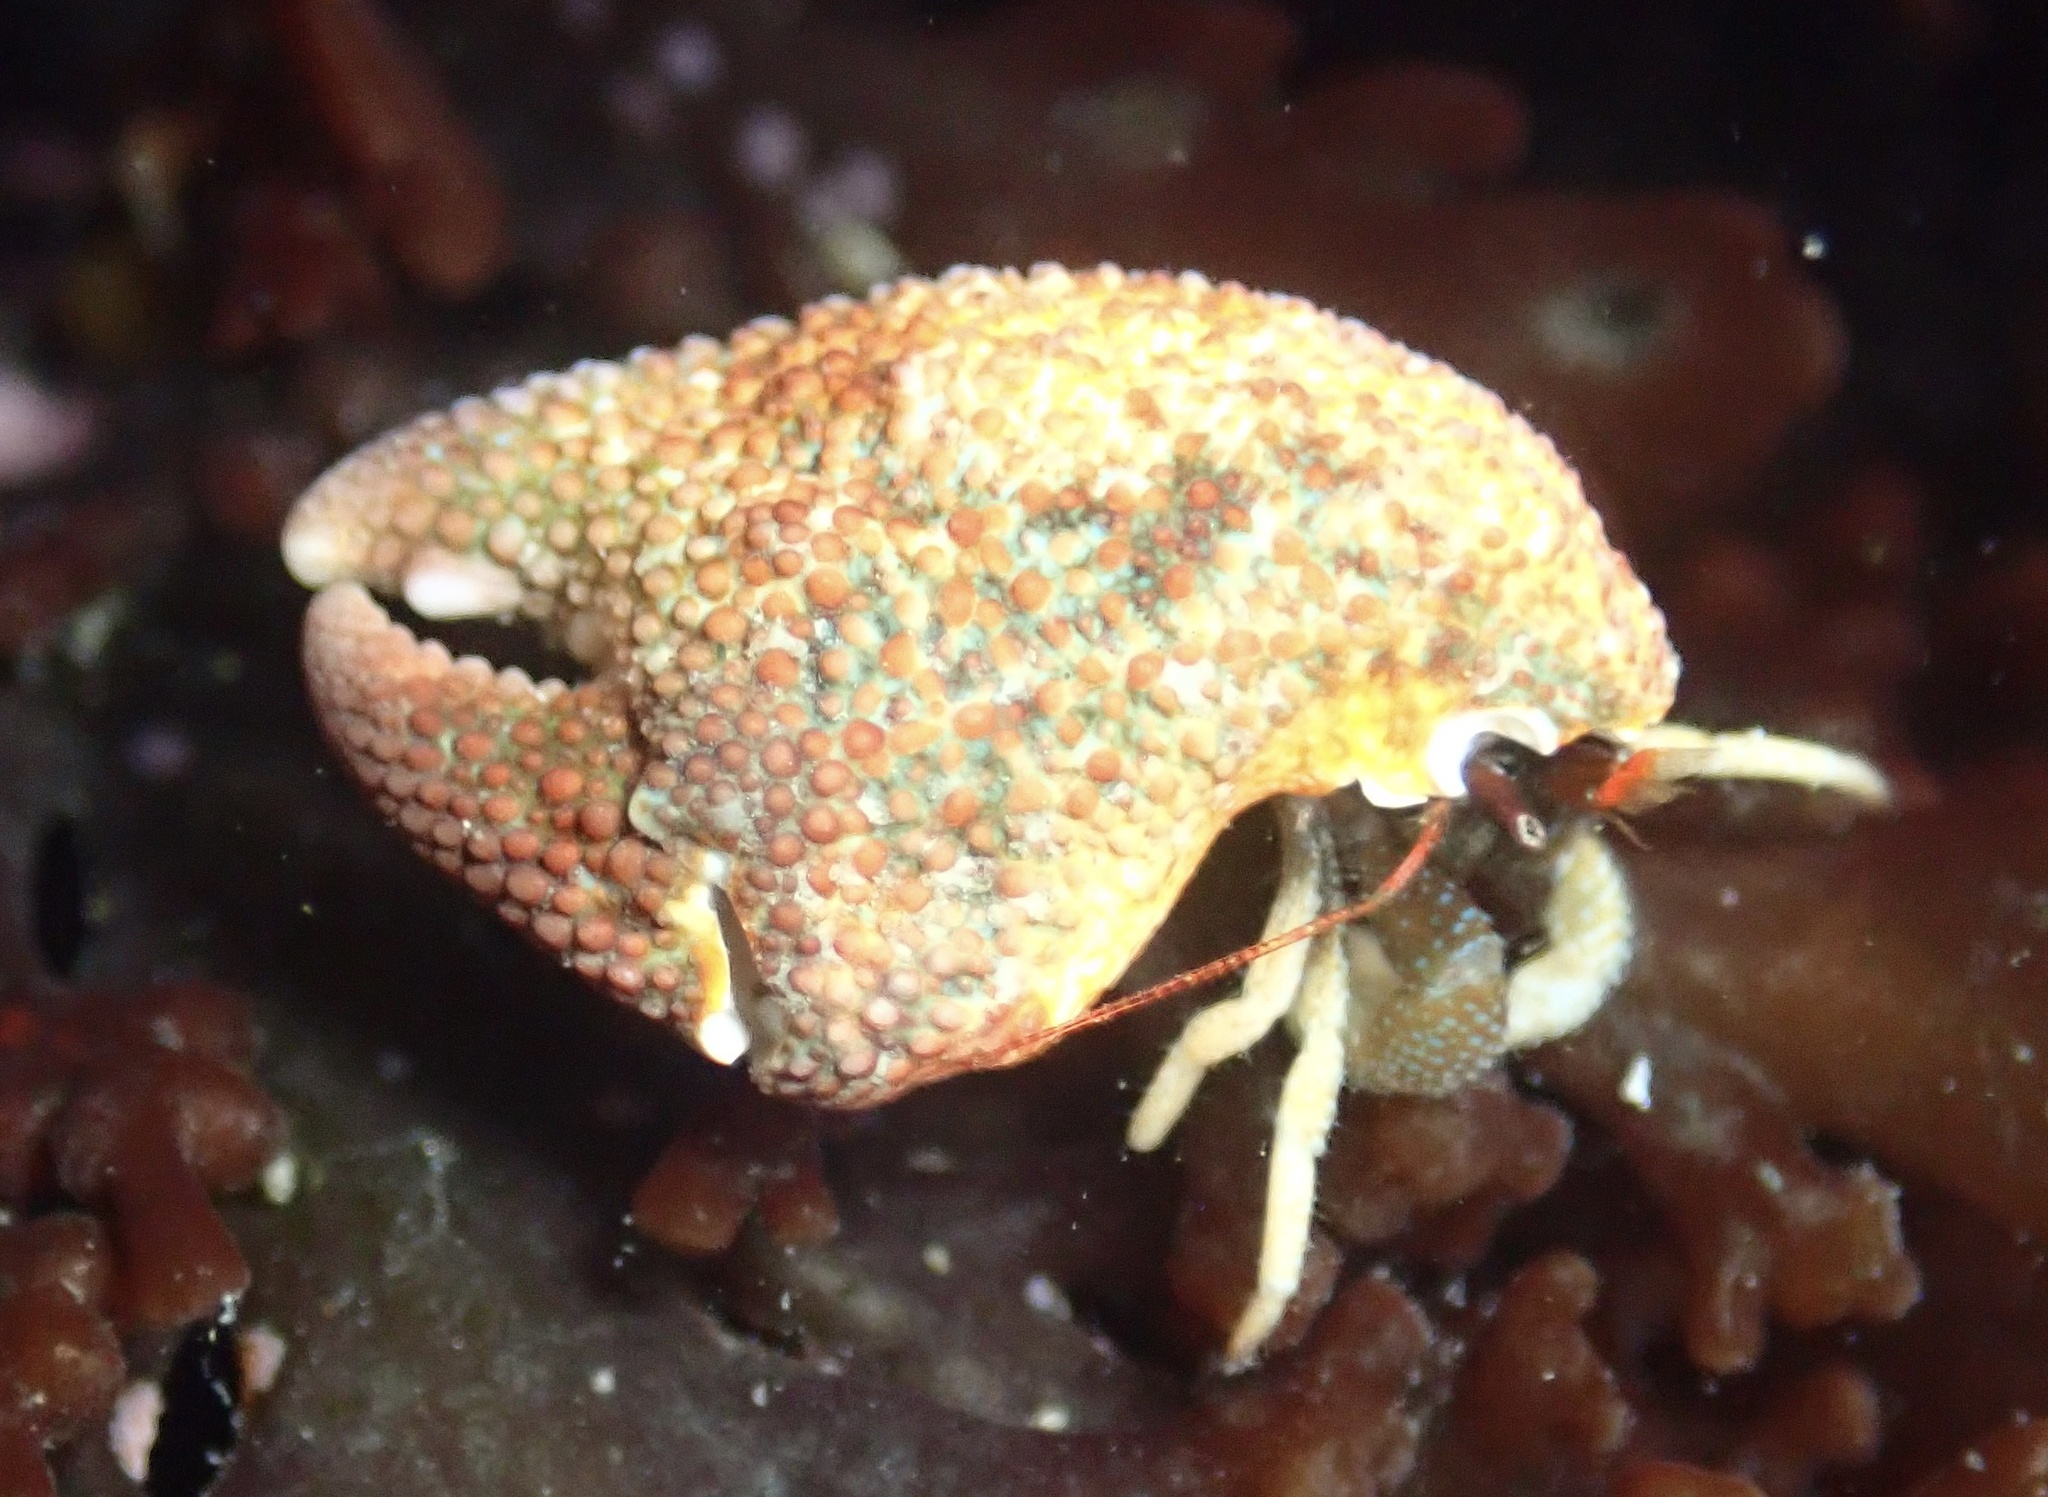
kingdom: Animalia
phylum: Arthropoda
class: Malacostraca
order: Decapoda
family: Paguridae
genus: Pagurus
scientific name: Pagurus granosimanus
